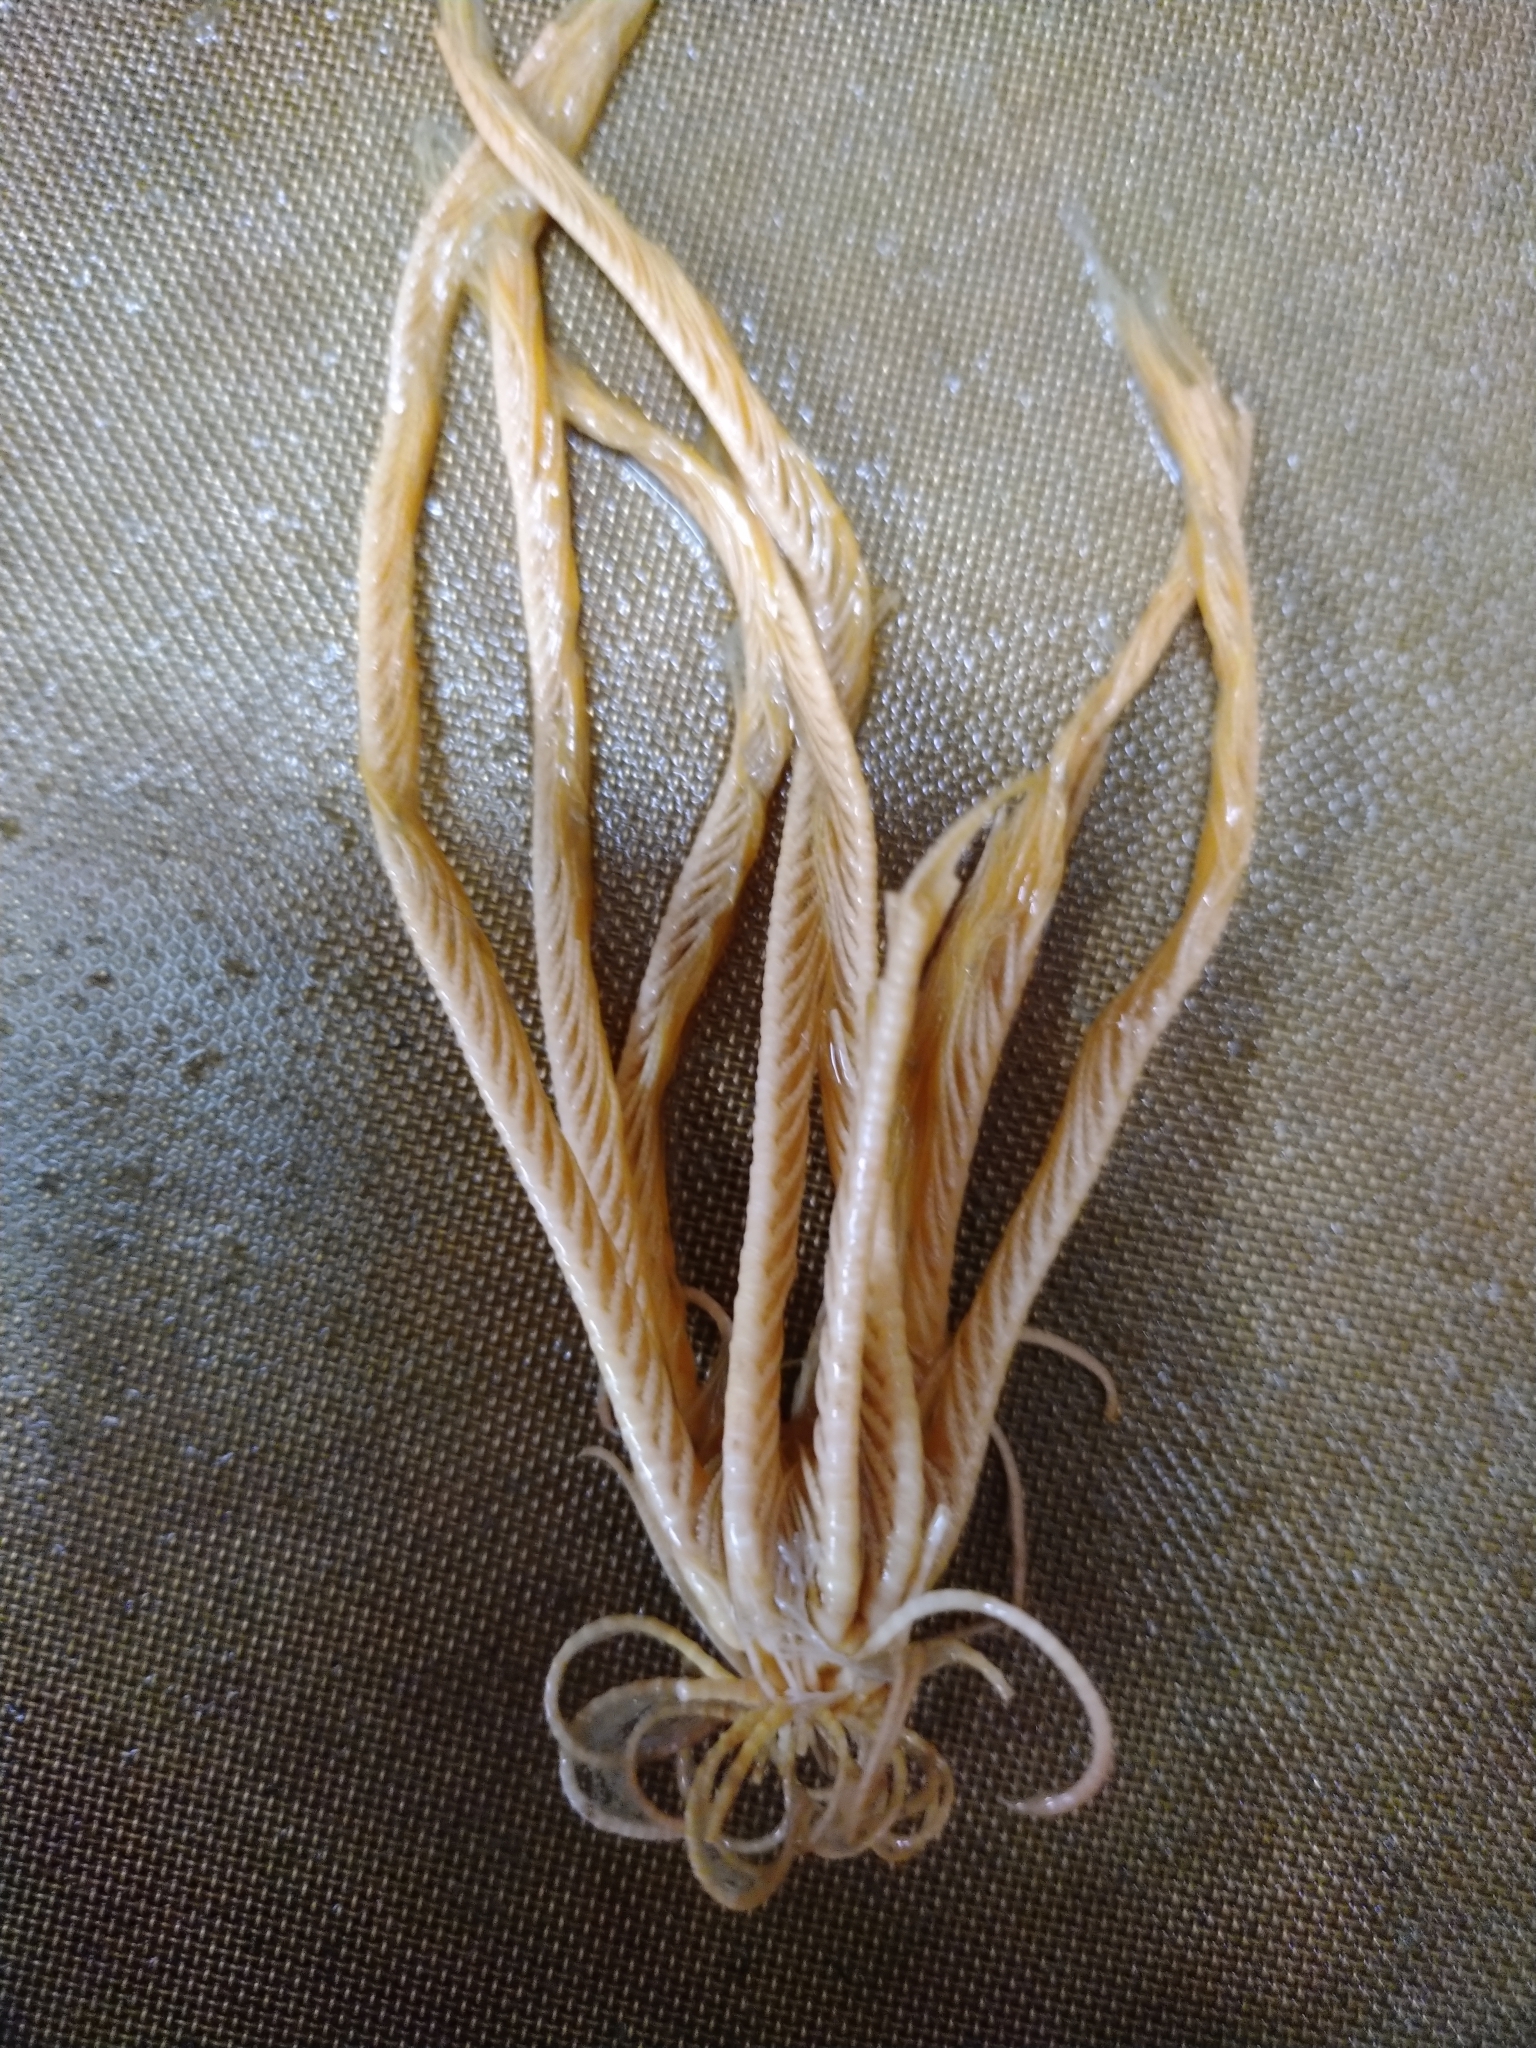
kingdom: Animalia
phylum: Echinodermata
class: Crinoidea
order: Comatulida
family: Antedonidae
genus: Heliometra
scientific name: Heliometra glacialis
